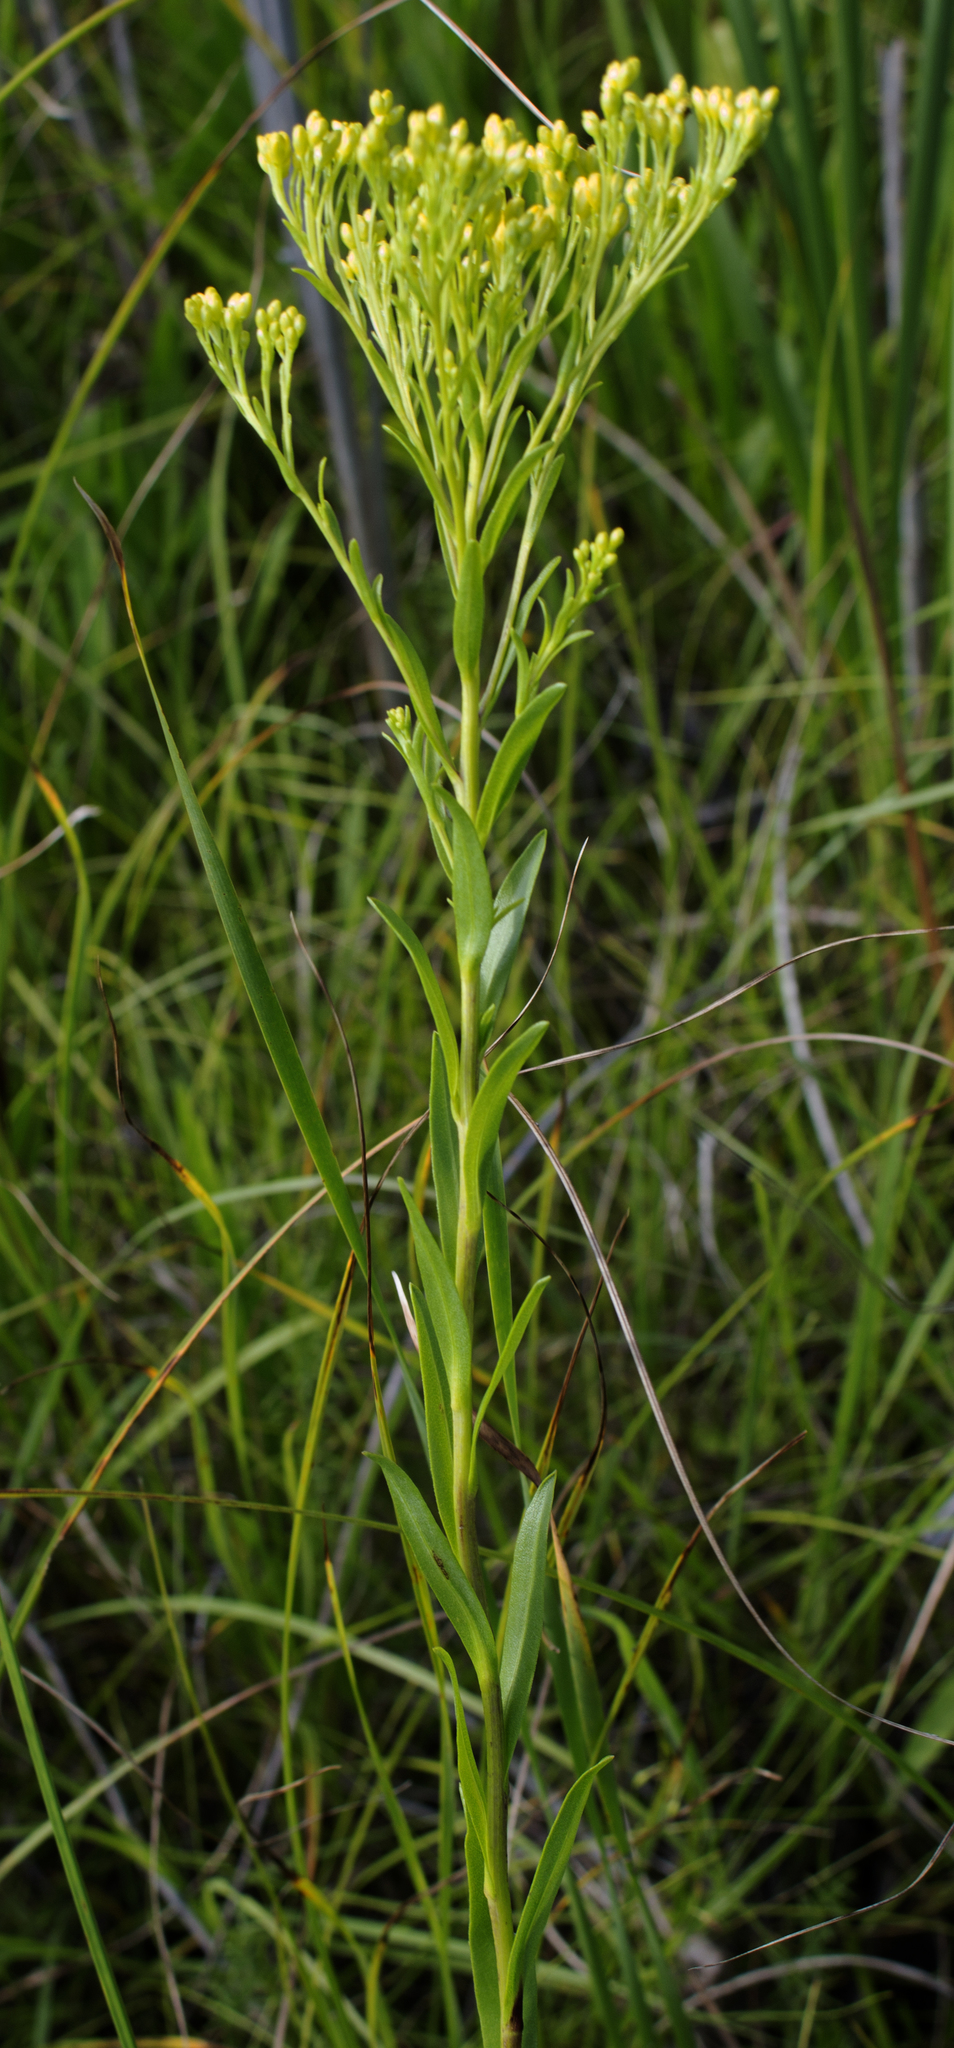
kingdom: Plantae
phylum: Tracheophyta
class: Magnoliopsida
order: Asterales
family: Asteraceae
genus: Solidago
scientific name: Solidago ohioensis
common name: Ohio goldenrod
